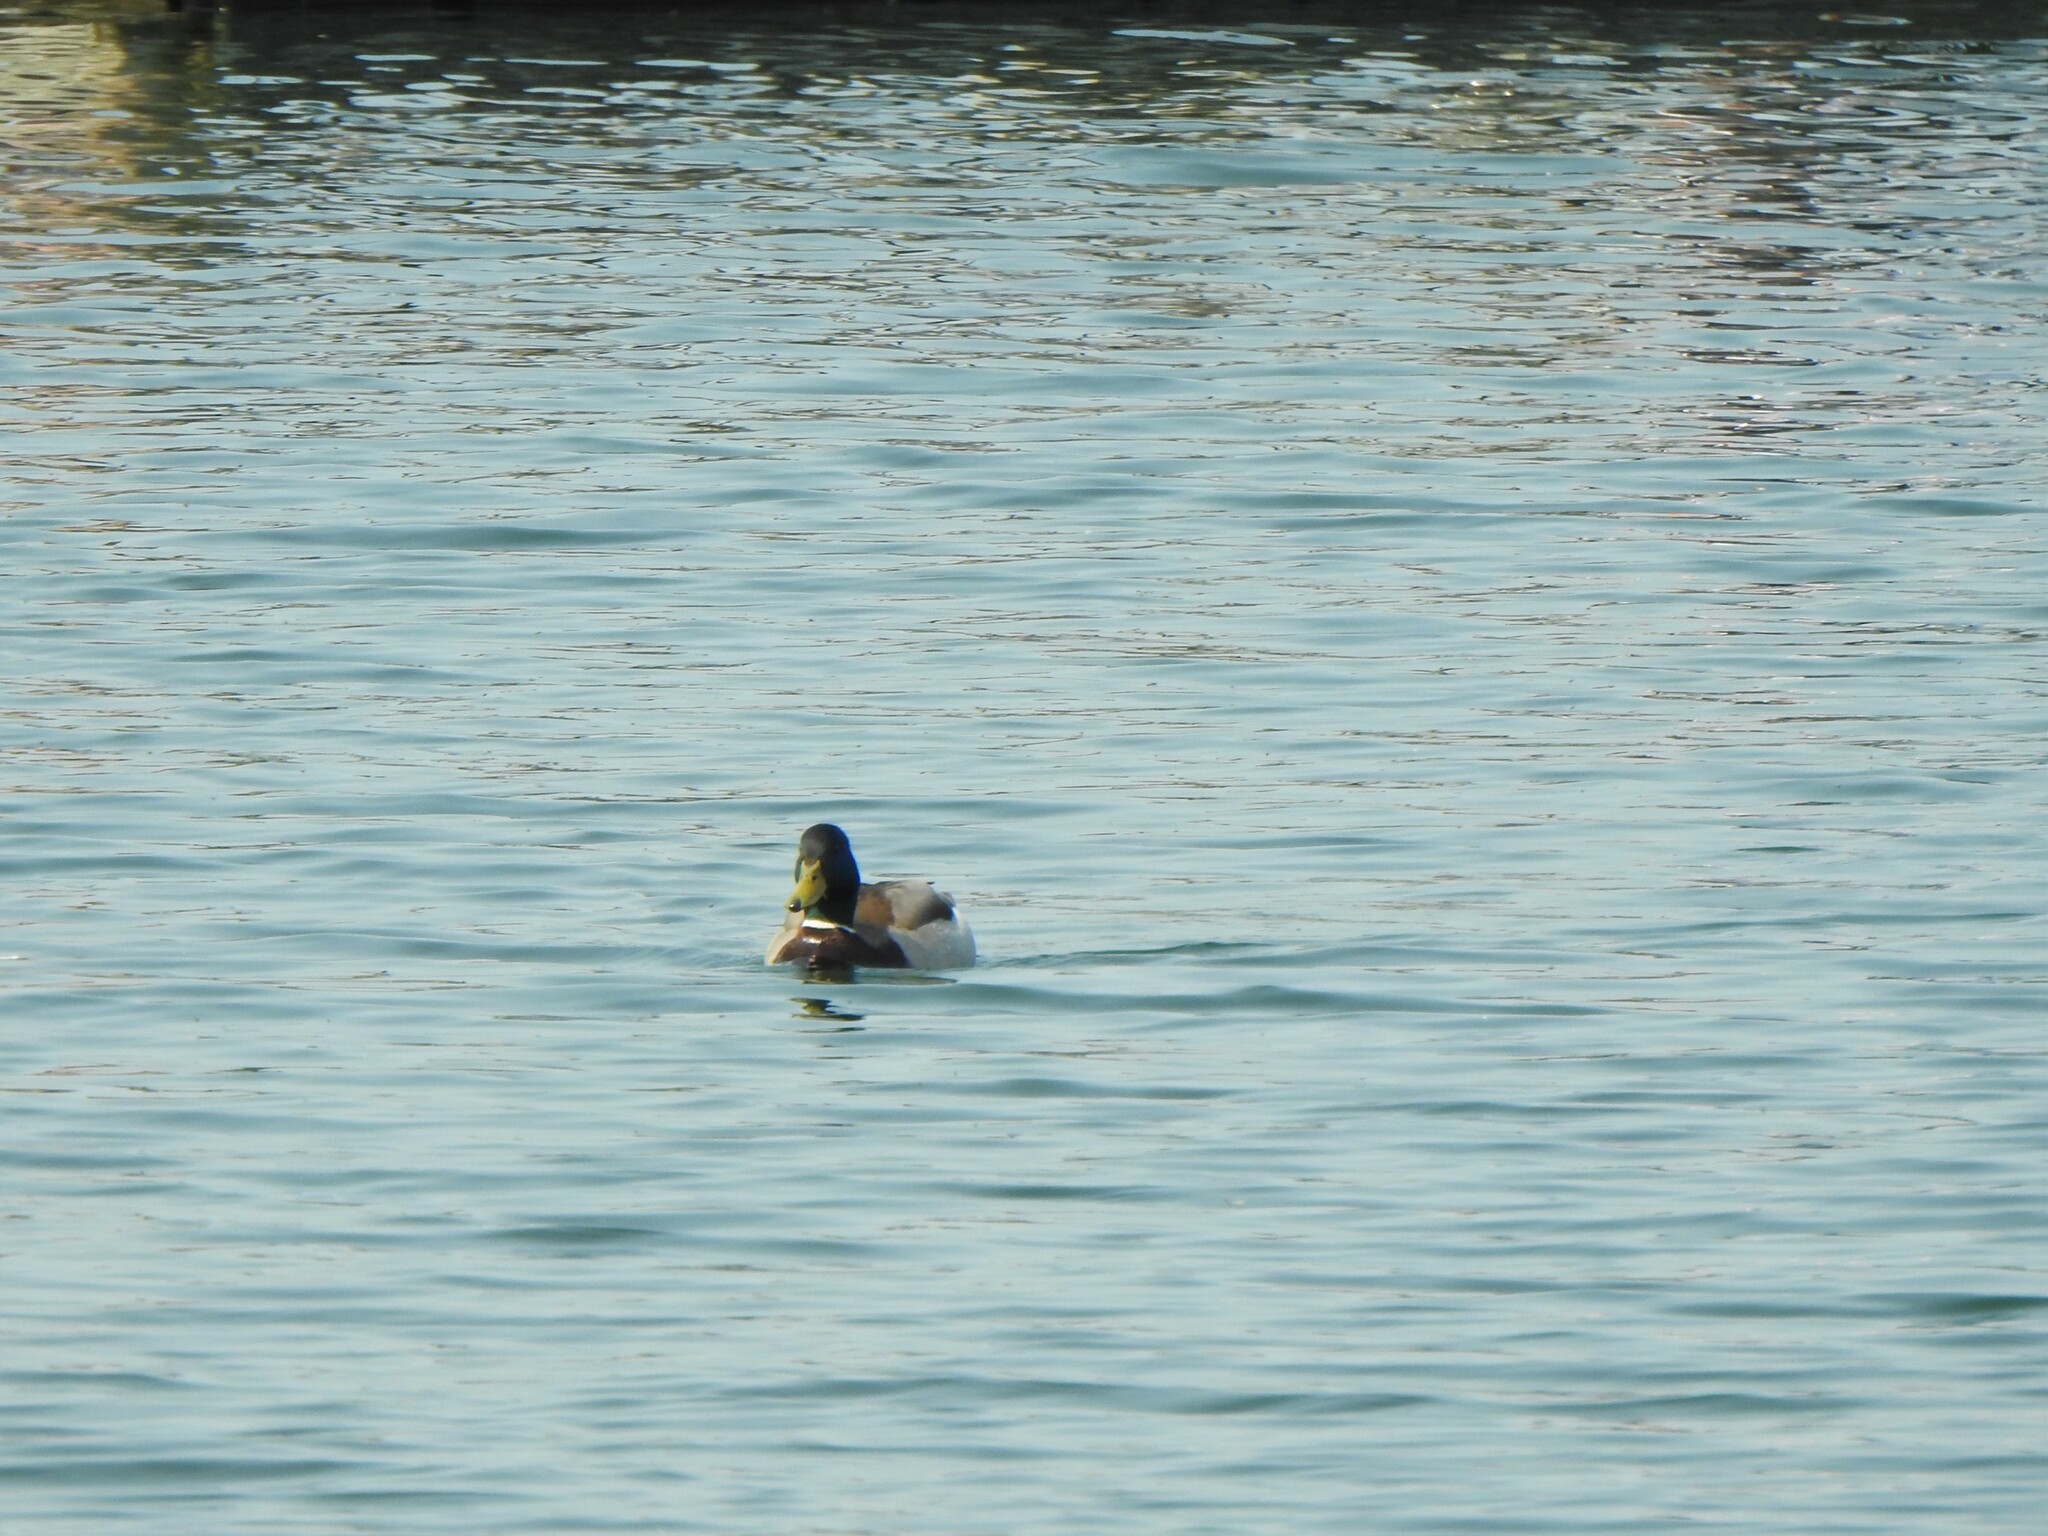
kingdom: Animalia
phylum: Chordata
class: Aves
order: Anseriformes
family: Anatidae
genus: Anas
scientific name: Anas platyrhynchos
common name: Mallard
